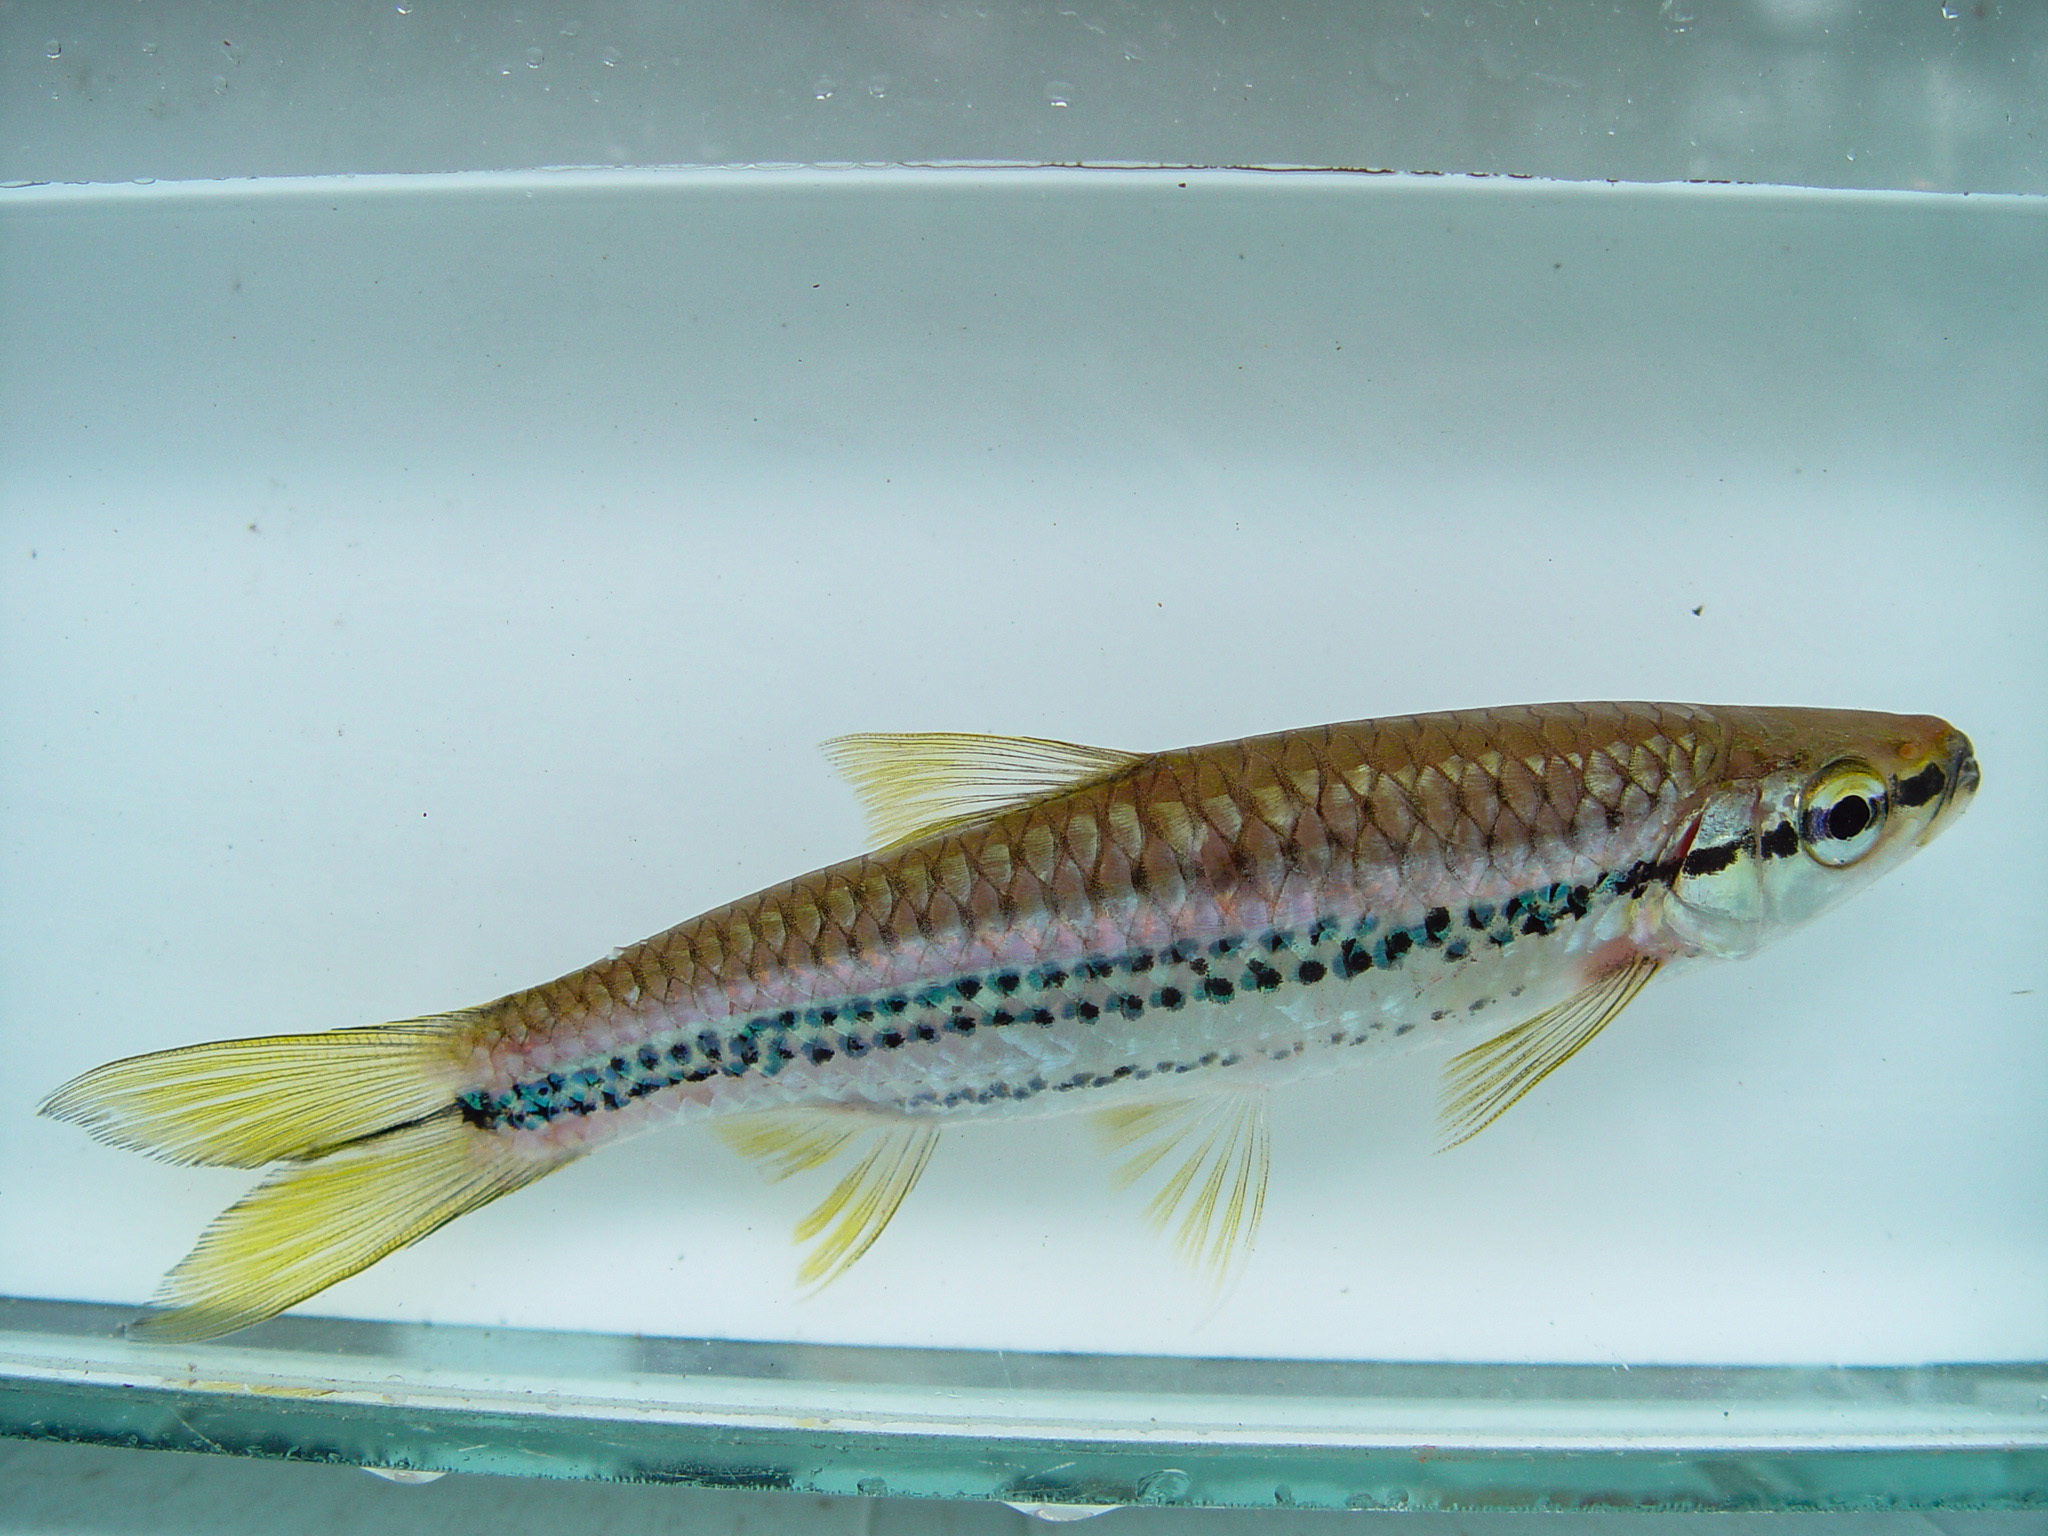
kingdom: Animalia
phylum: Chordata
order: Cypriniformes
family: Cyprinidae
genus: Rasbora
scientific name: Rasbora cephalotaenia
